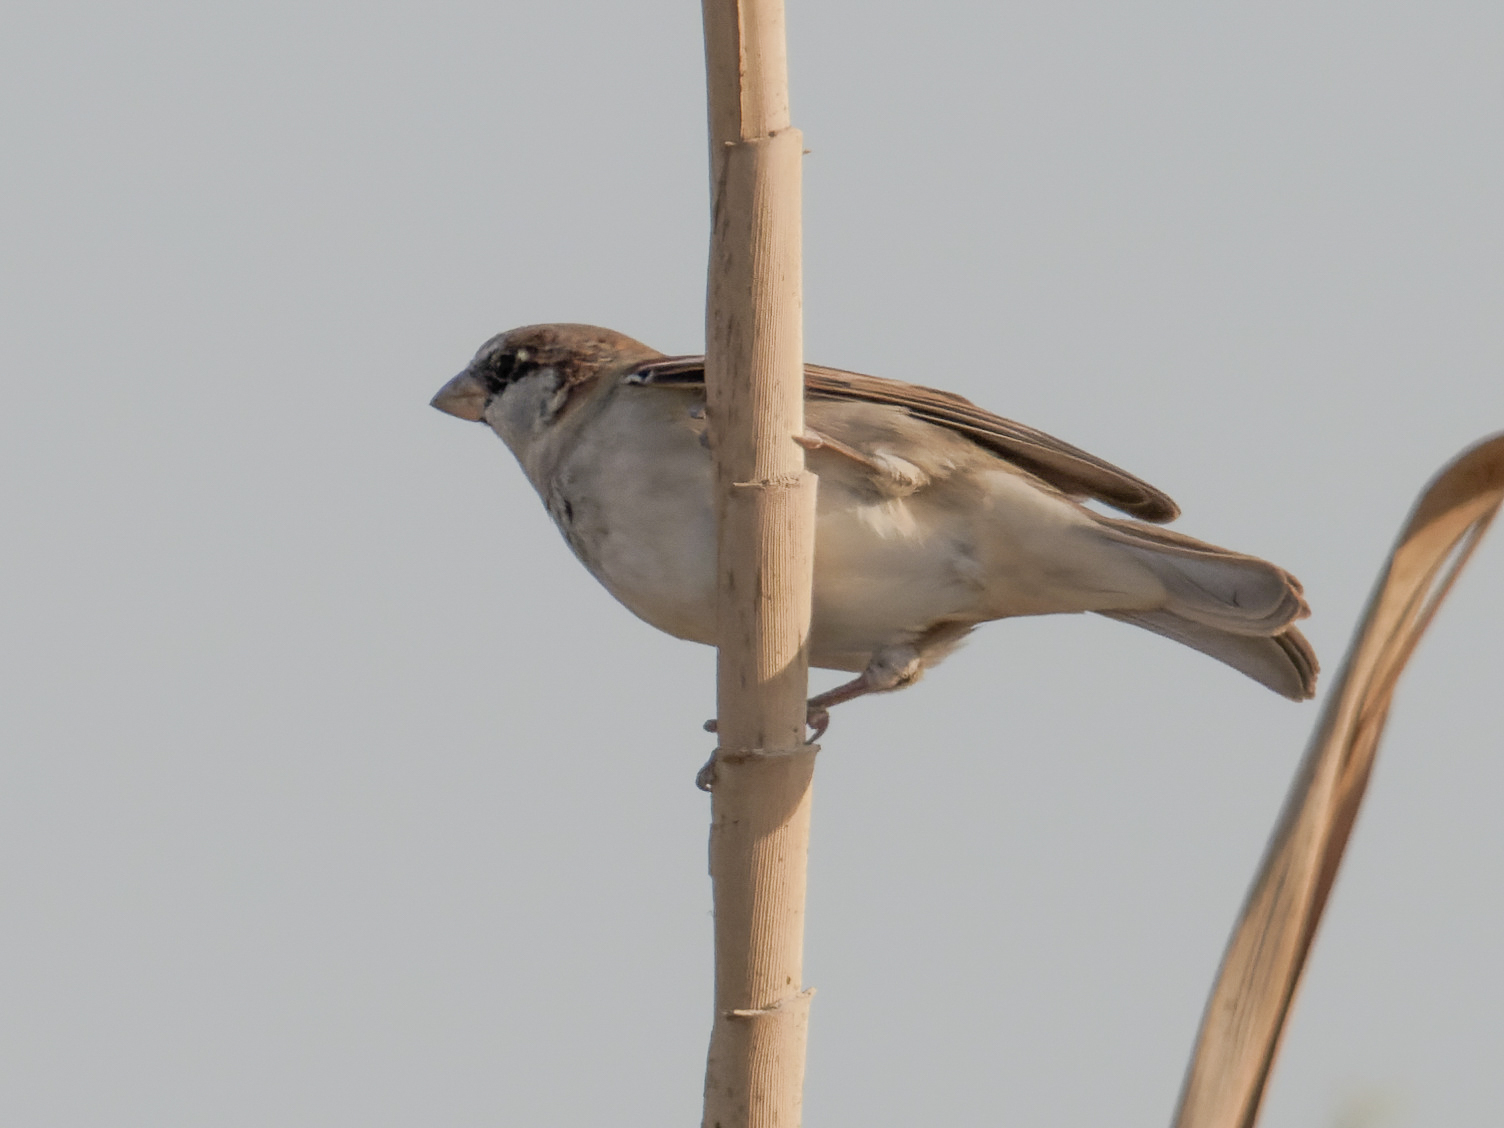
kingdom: Animalia
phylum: Chordata
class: Aves
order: Passeriformes
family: Passeridae
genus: Passer
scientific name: Passer domesticus
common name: House sparrow
